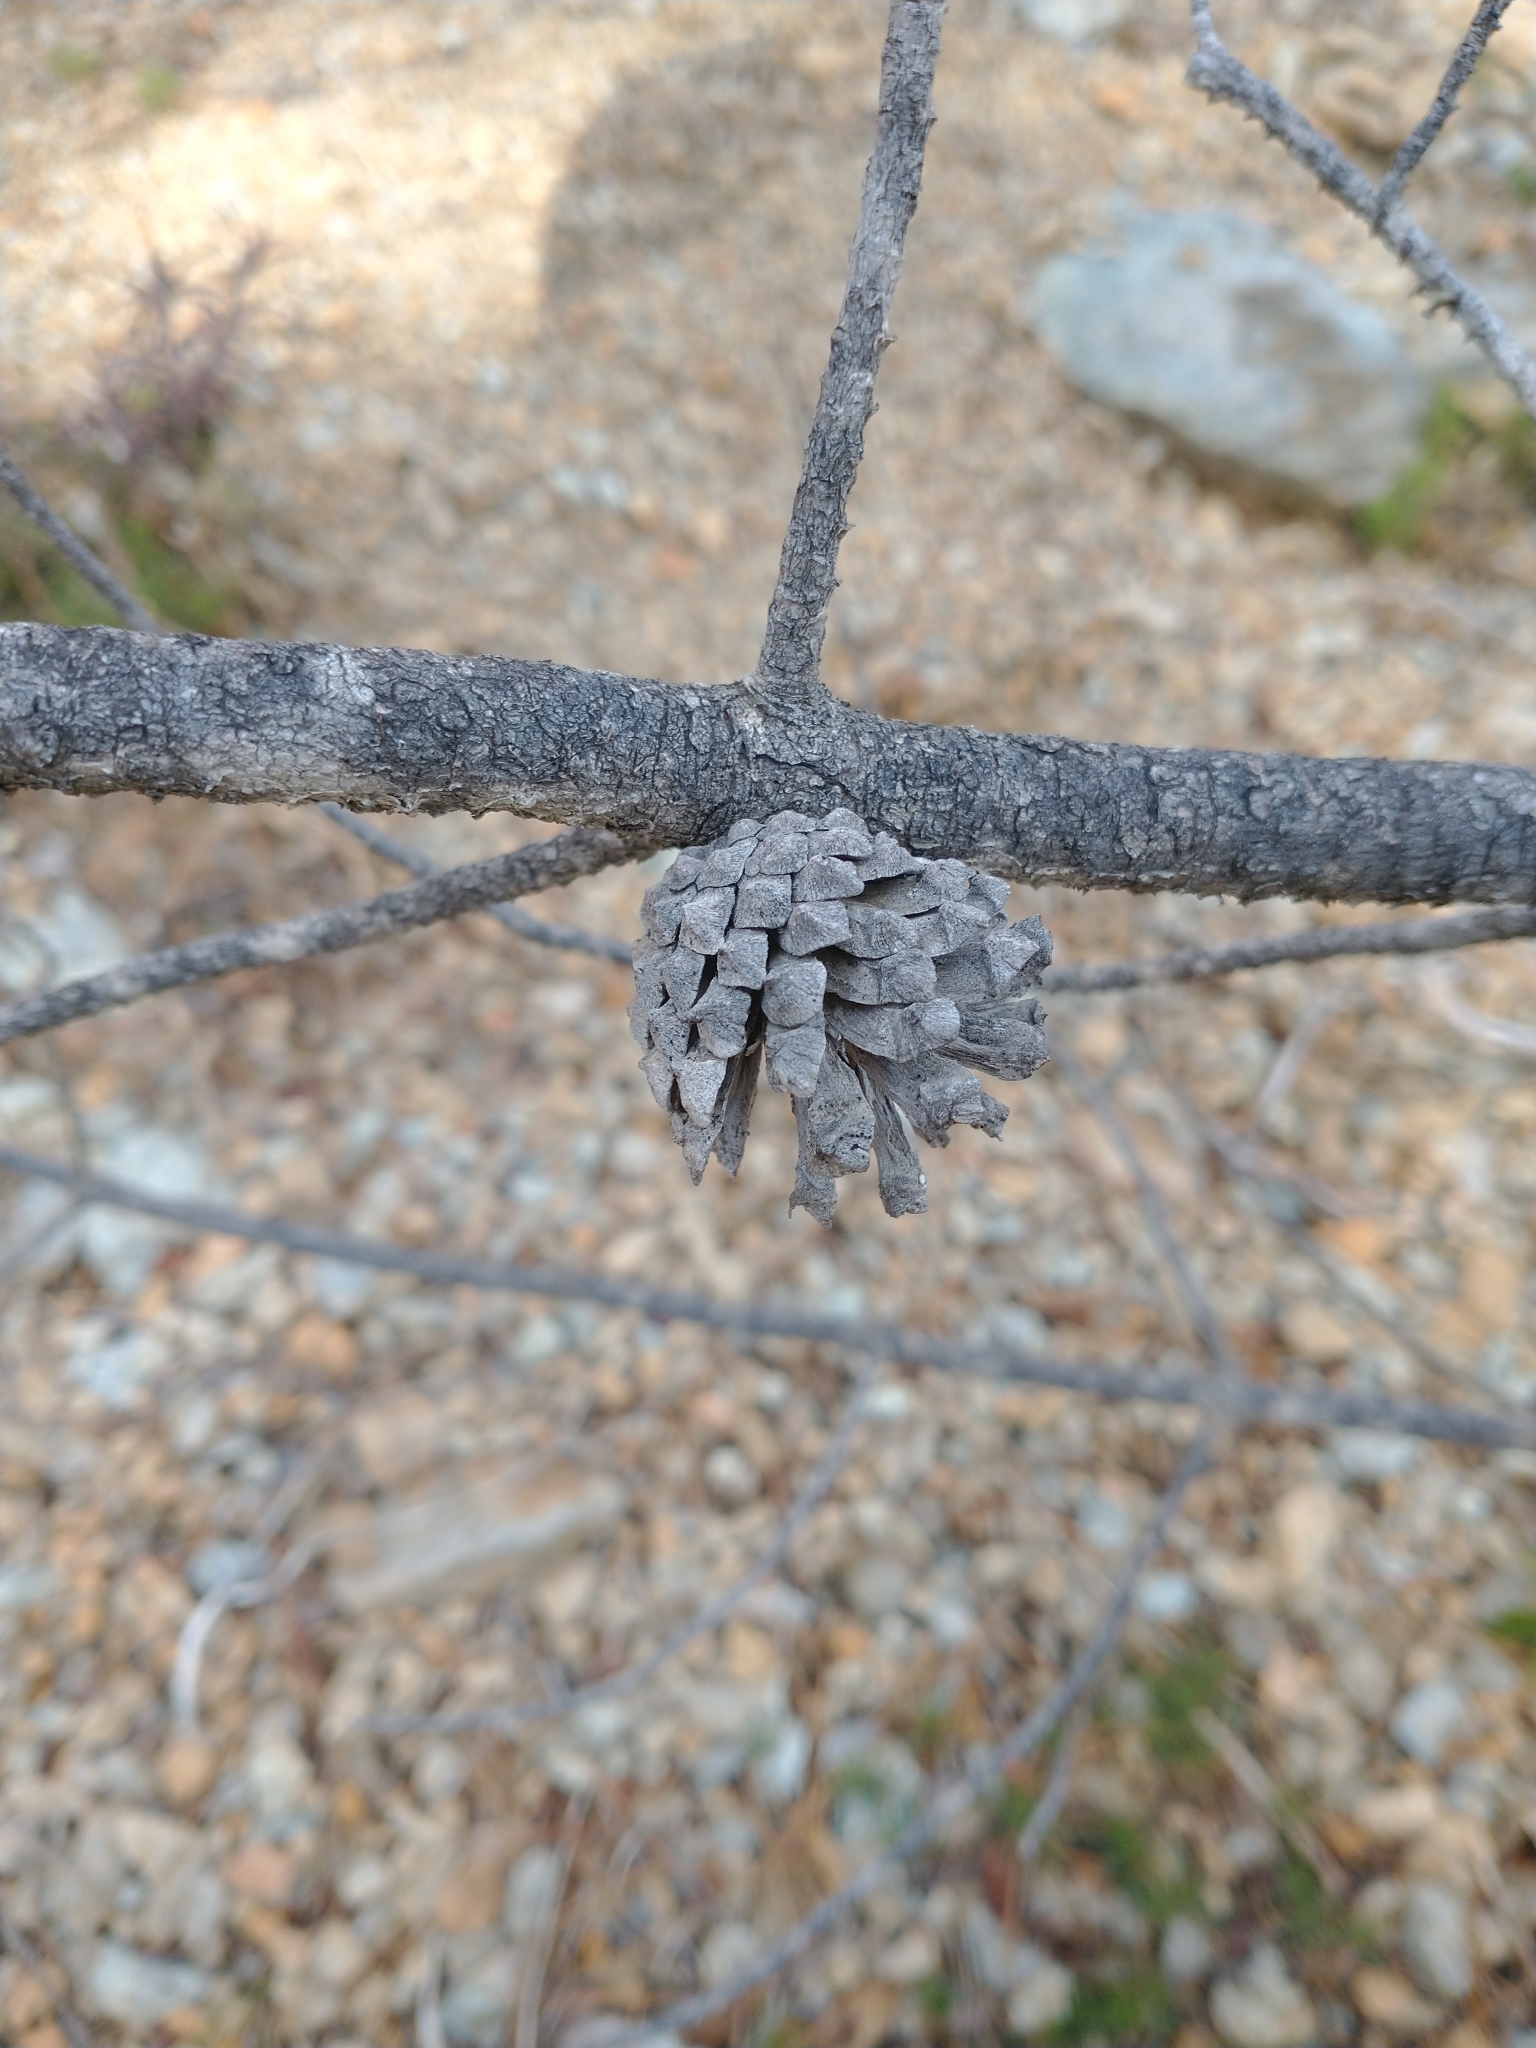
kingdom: Plantae
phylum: Tracheophyta
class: Pinopsida
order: Pinales
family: Pinaceae
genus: Pinus
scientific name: Pinus contorta
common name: Lodgepole pine
